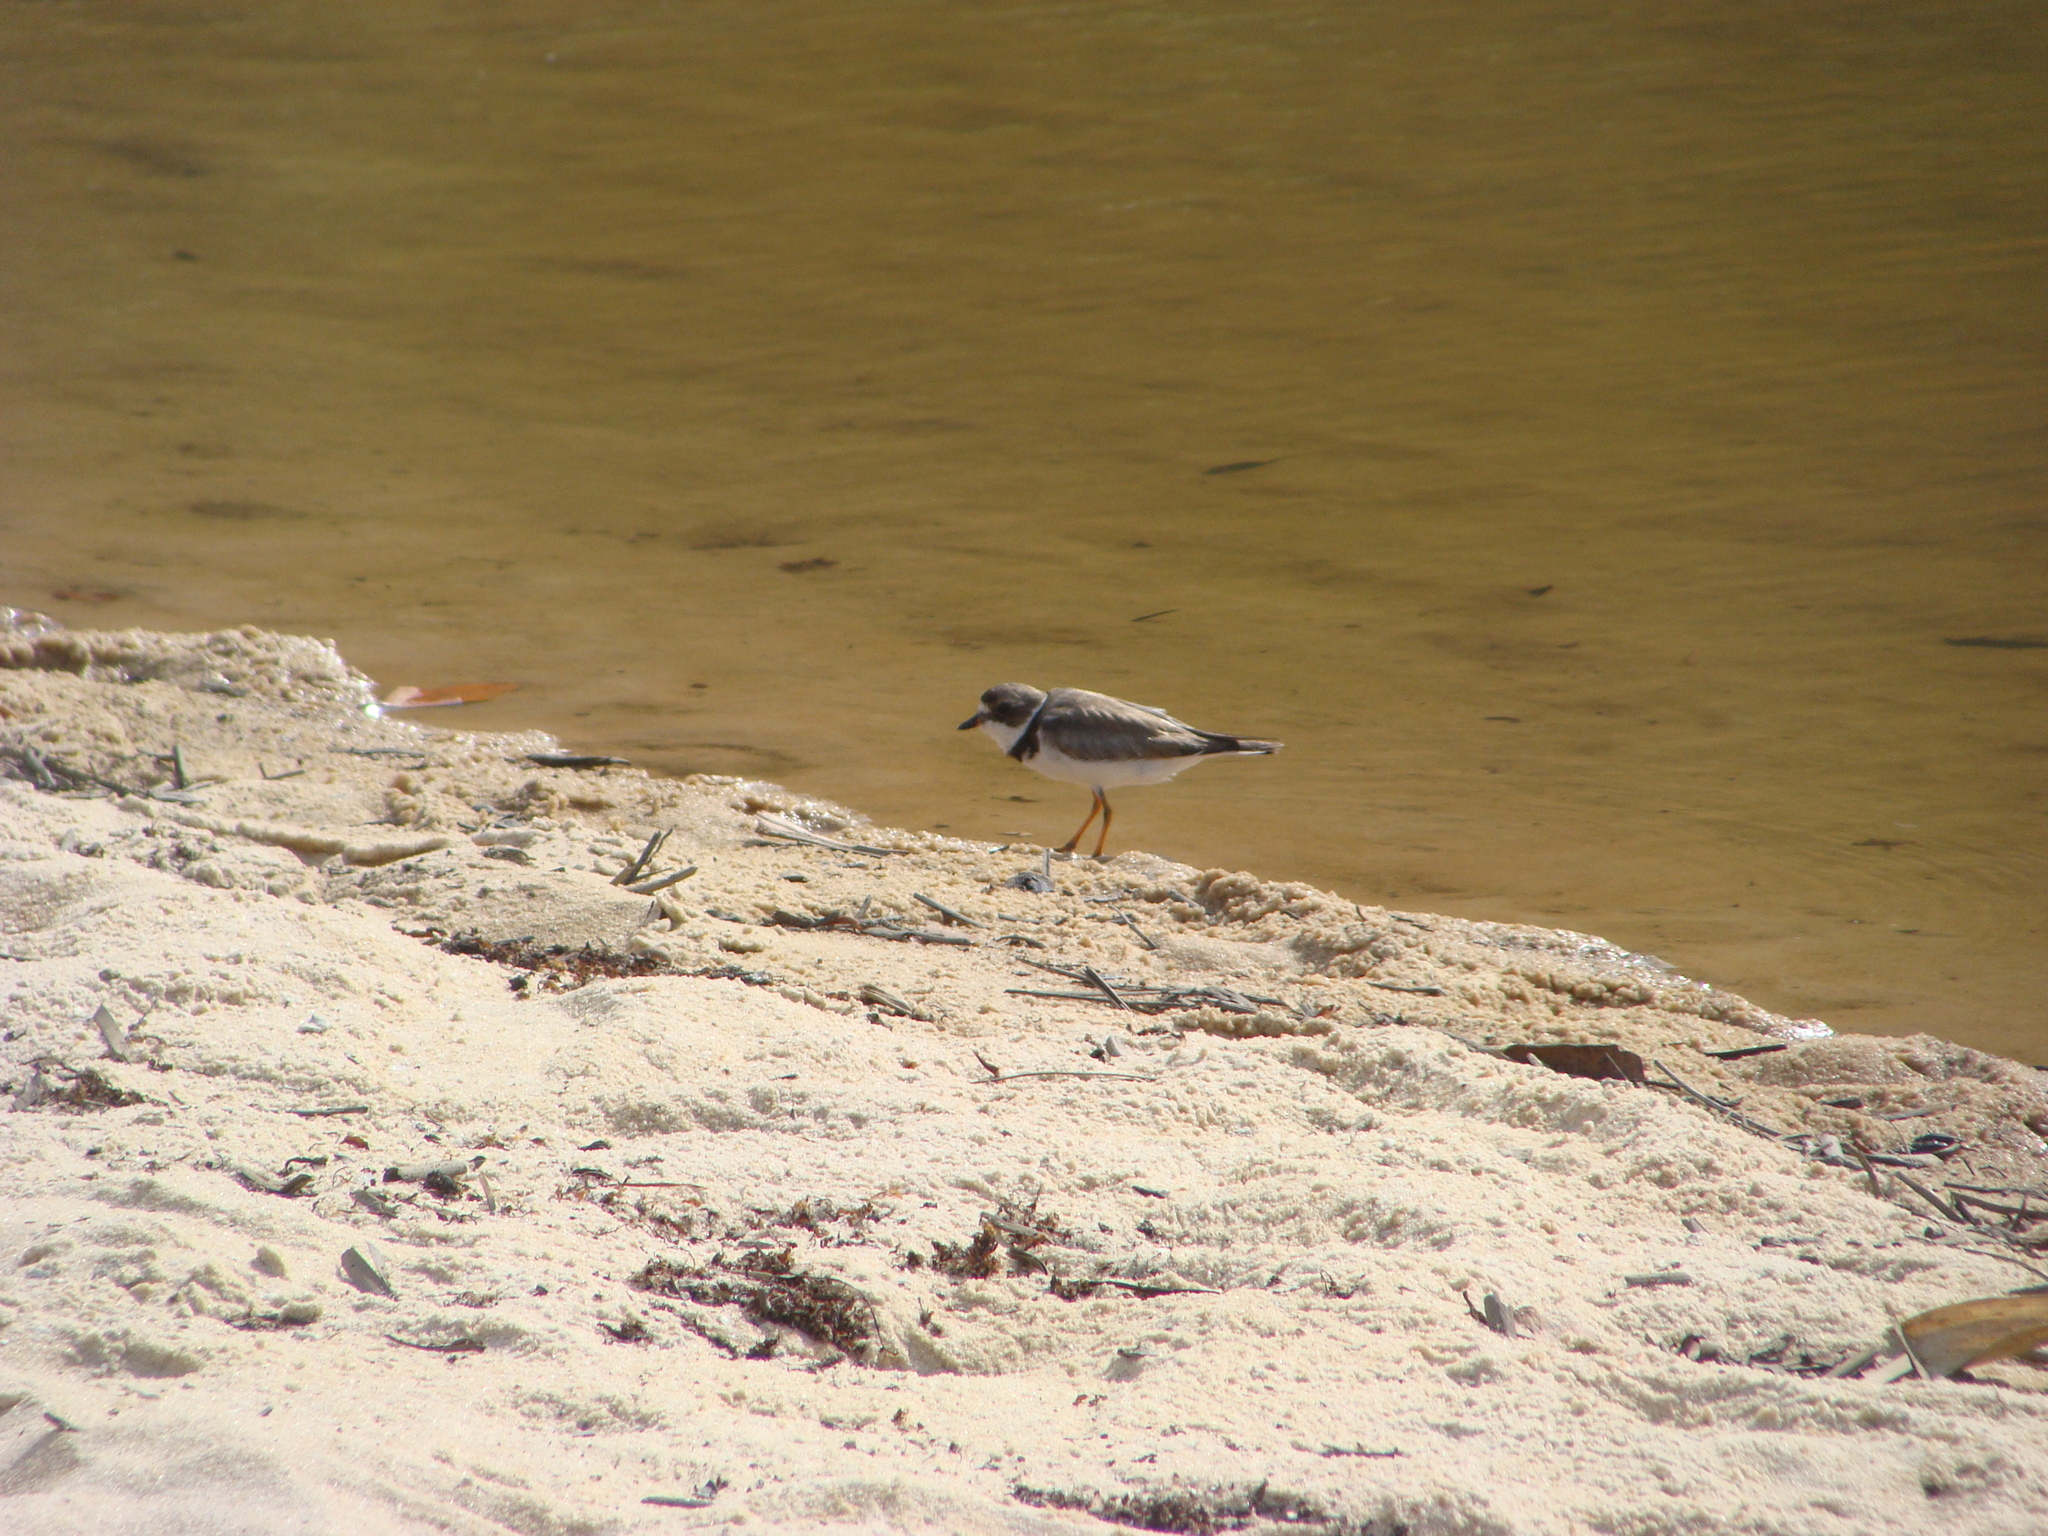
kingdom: Animalia
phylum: Chordata
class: Aves
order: Charadriiformes
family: Charadriidae
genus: Charadrius
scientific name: Charadrius semipalmatus
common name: Semipalmated plover
